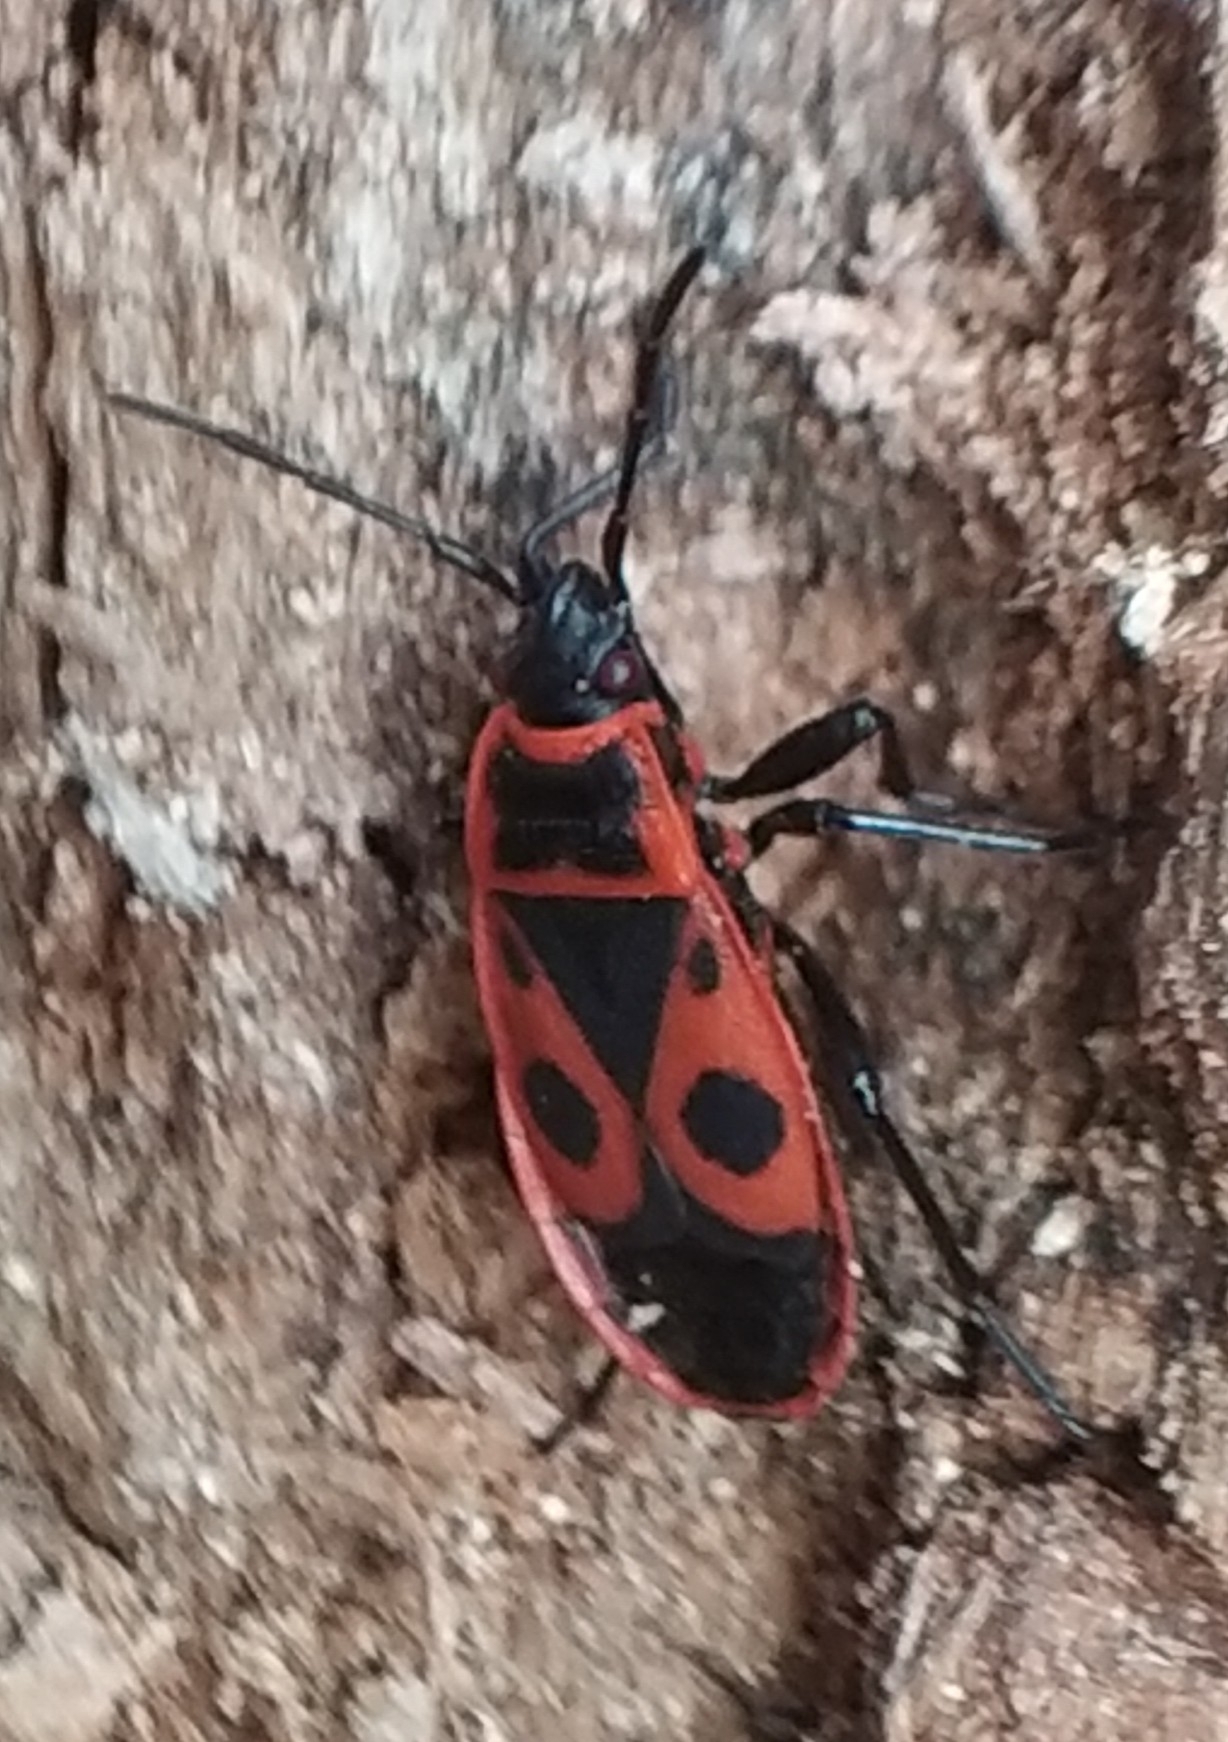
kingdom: Animalia
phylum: Arthropoda
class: Insecta
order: Hemiptera
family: Pyrrhocoridae
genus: Pyrrhocoris
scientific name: Pyrrhocoris apterus
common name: Firebug
